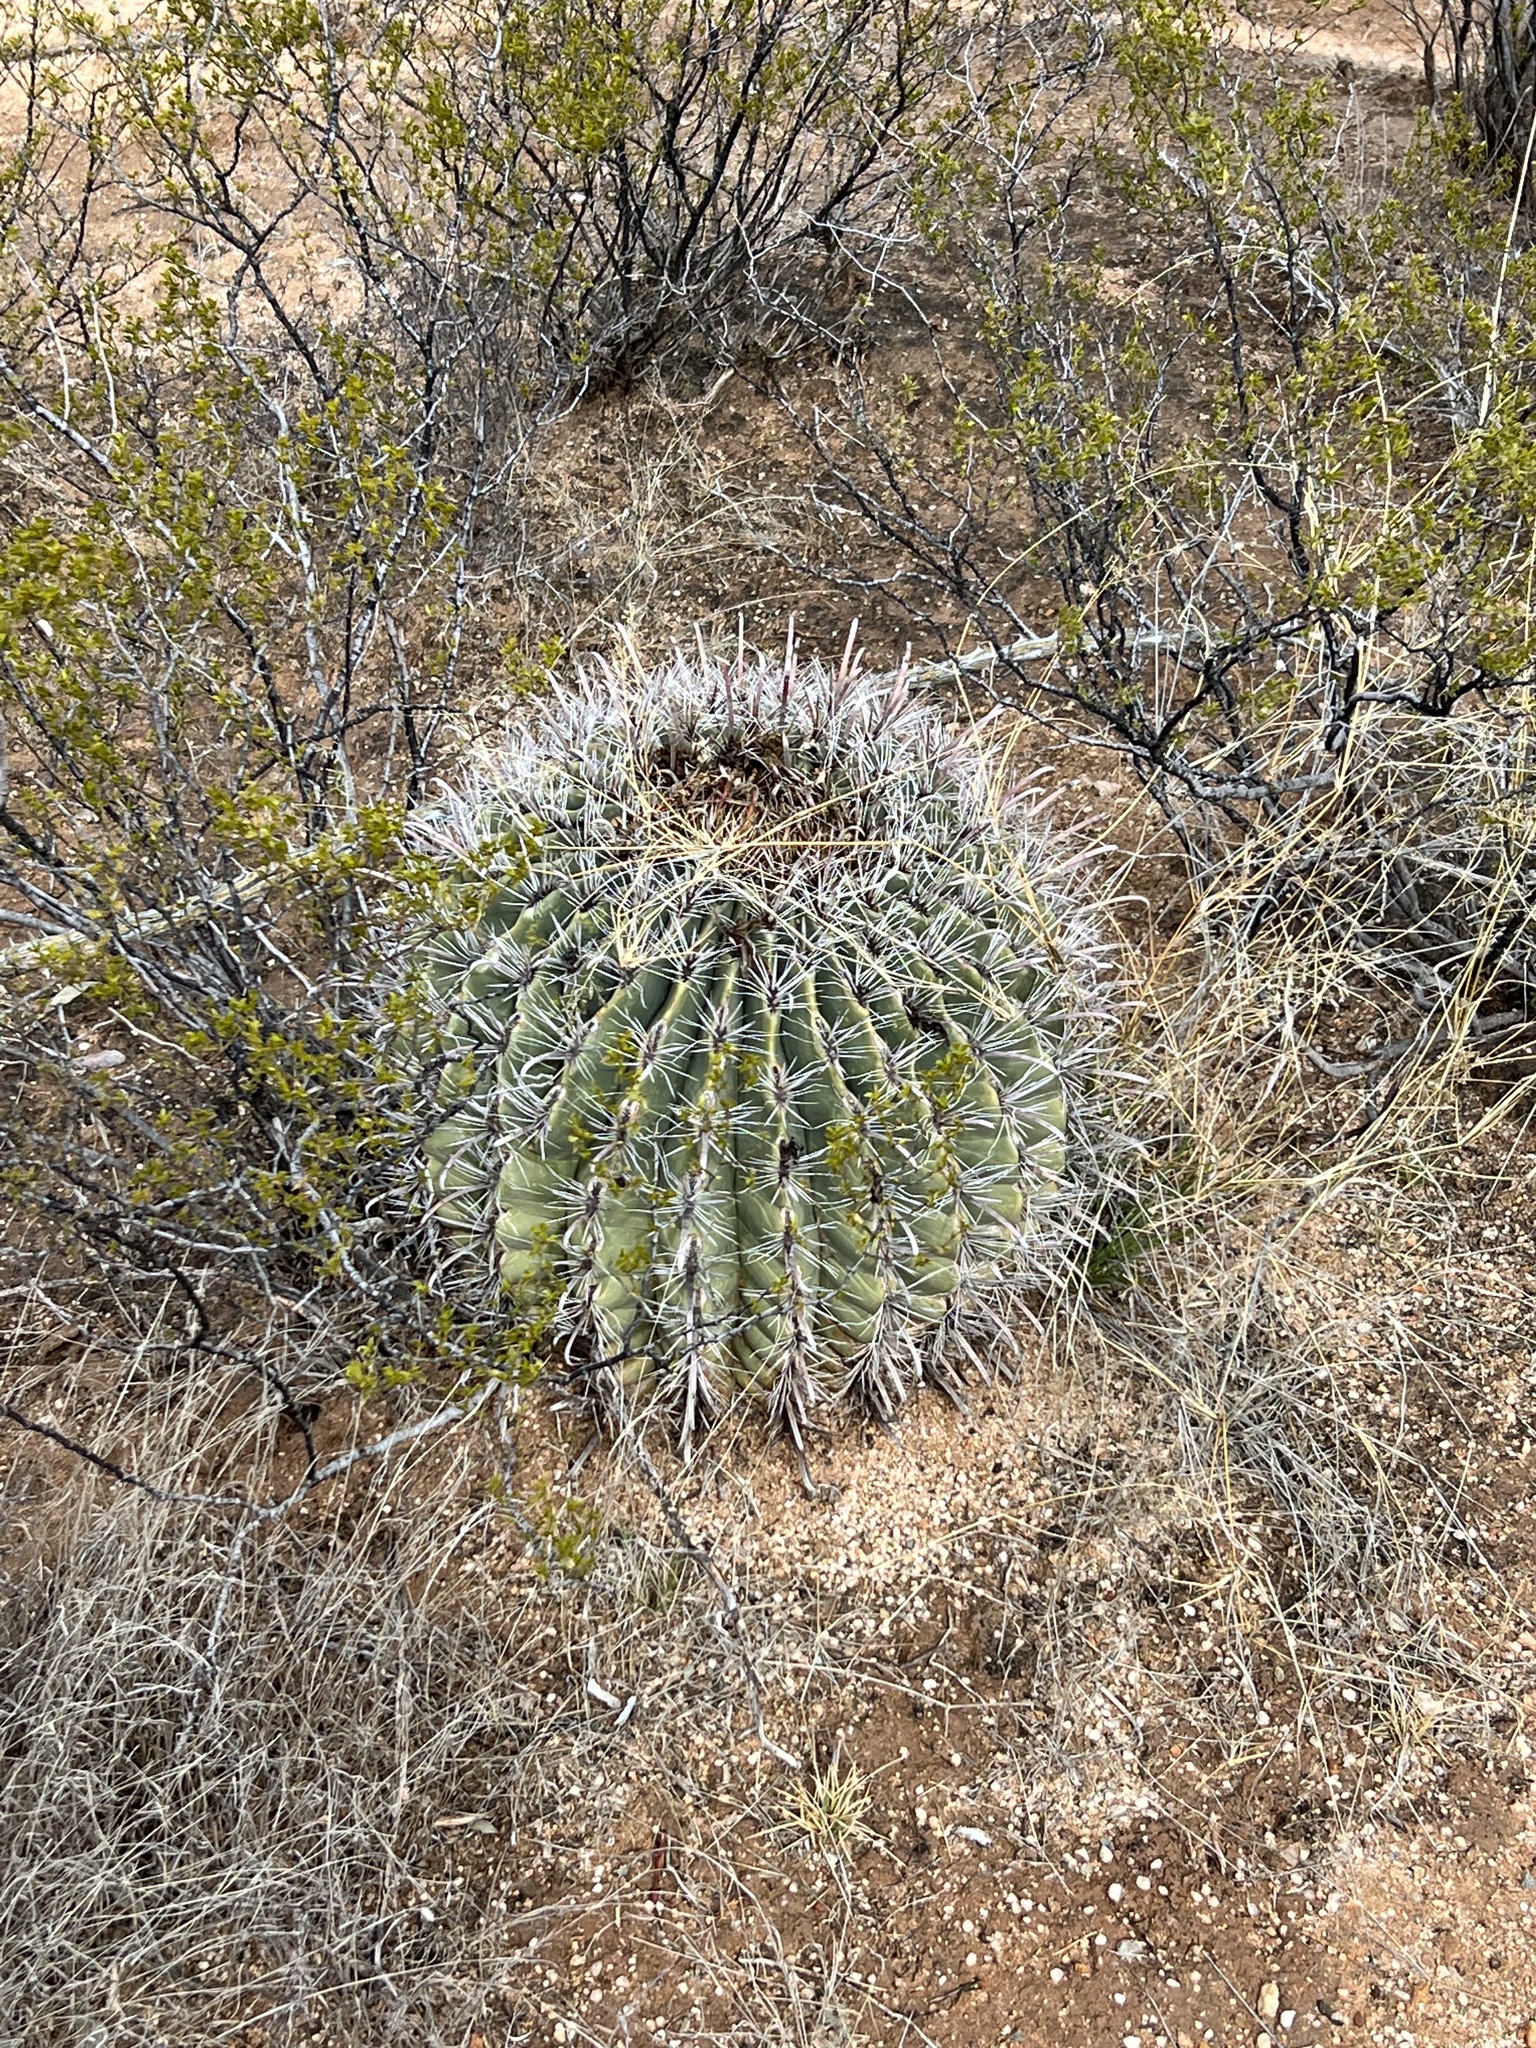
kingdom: Plantae
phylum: Tracheophyta
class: Magnoliopsida
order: Caryophyllales
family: Cactaceae
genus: Ferocactus
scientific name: Ferocactus wislizeni
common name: Candy barrel cactus
